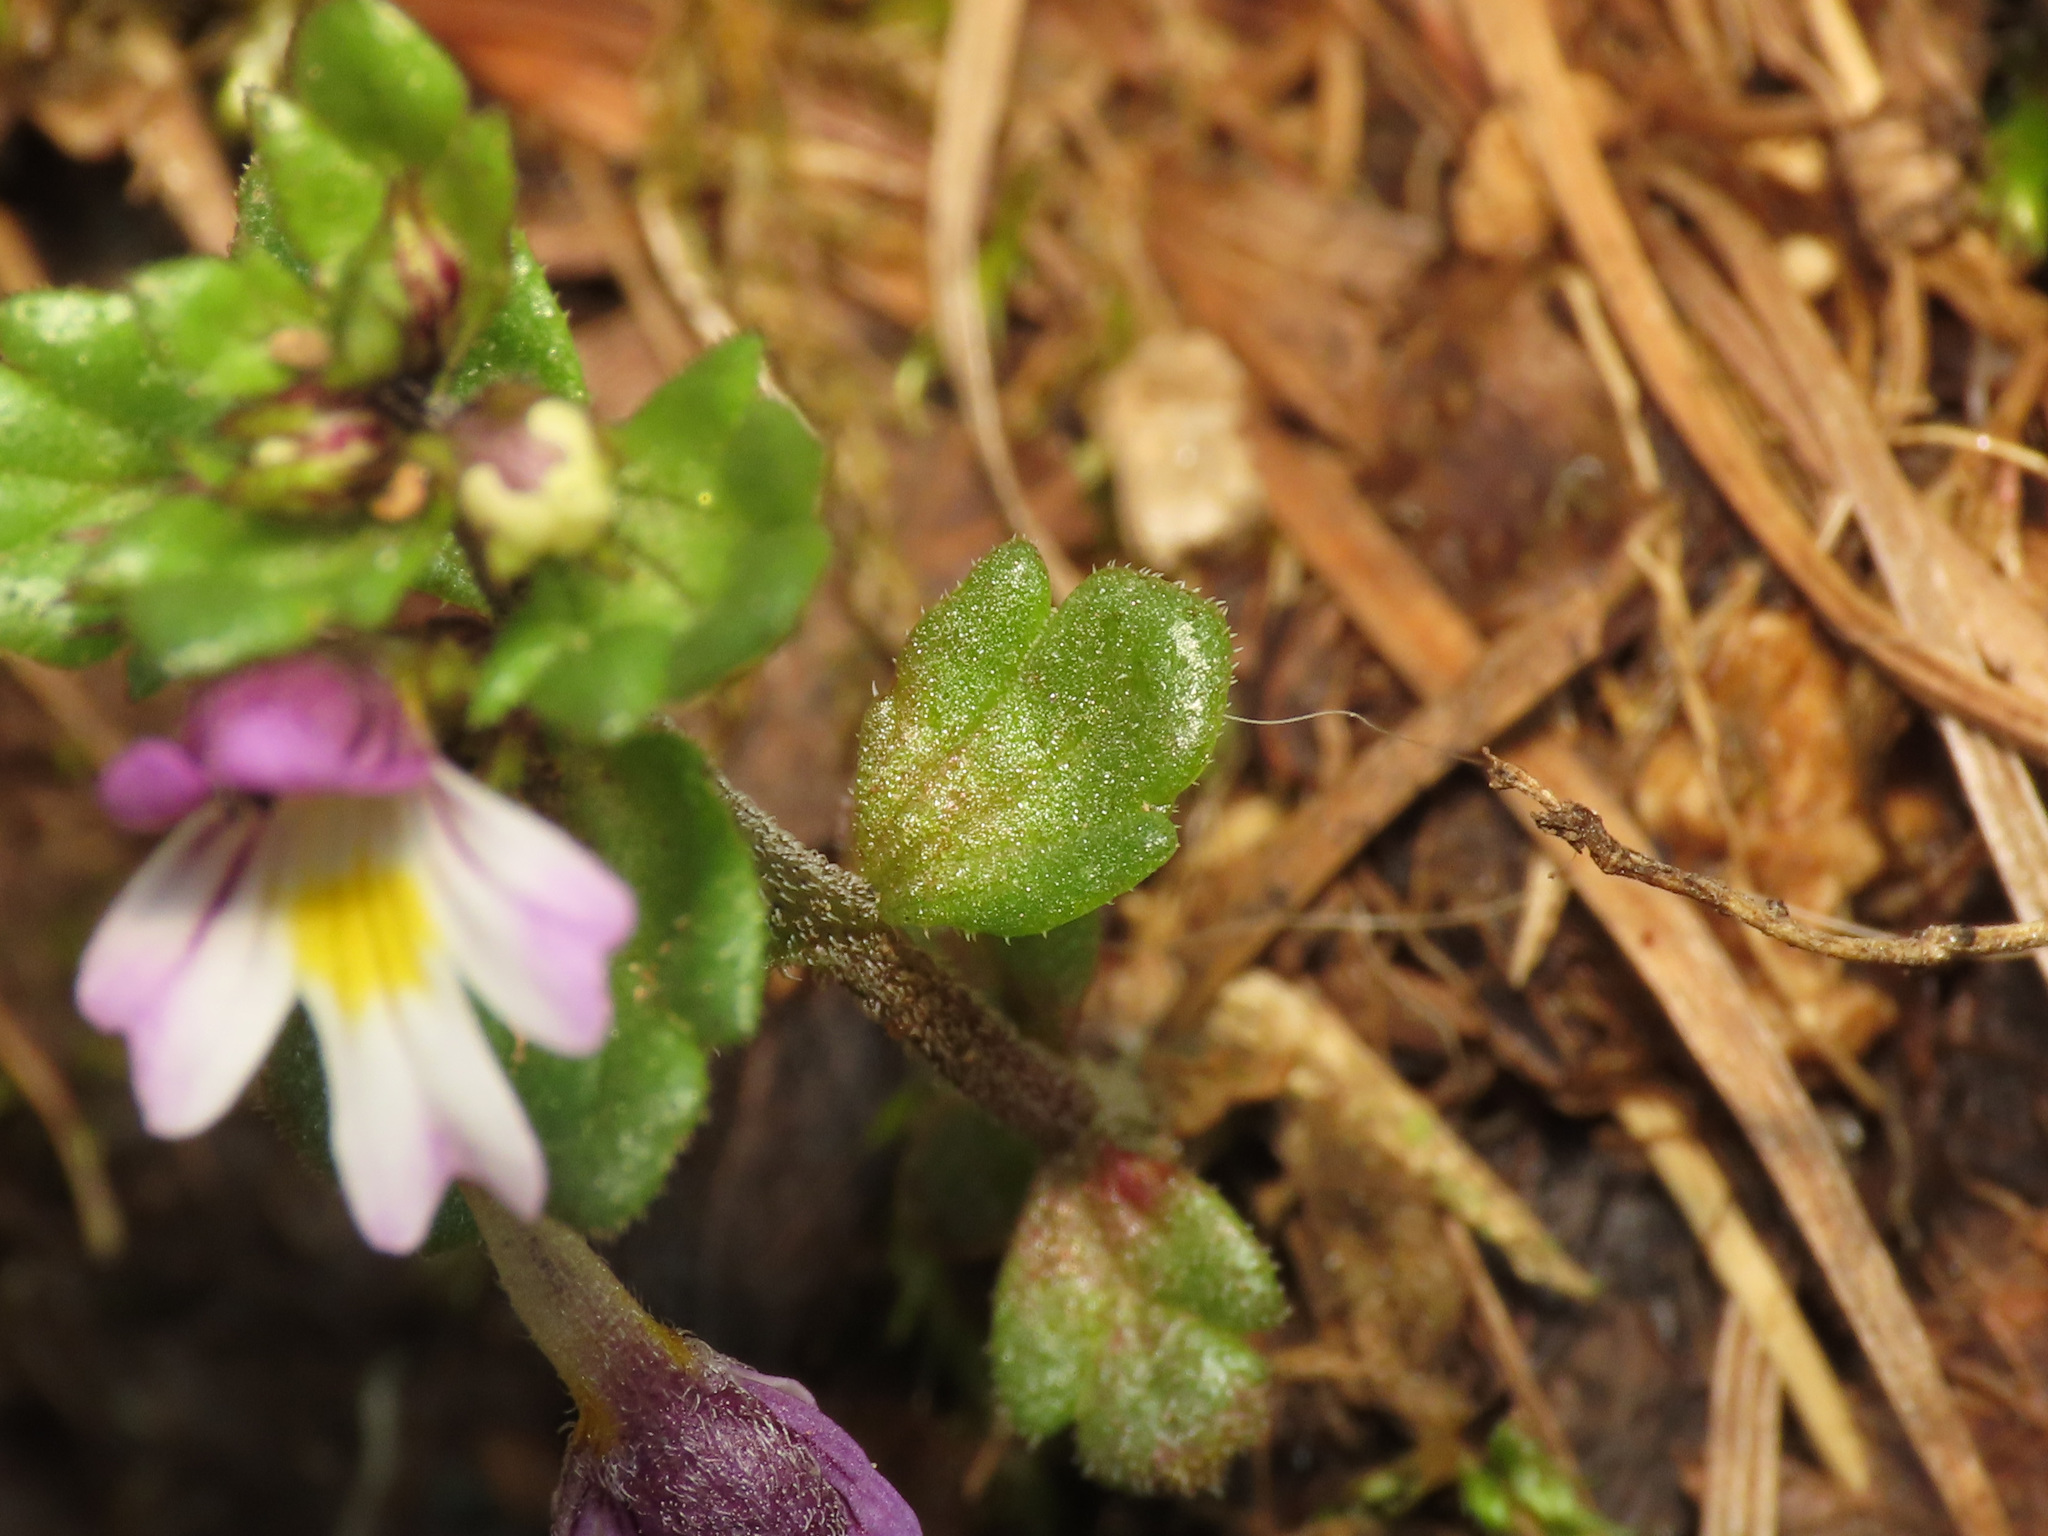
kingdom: Plantae
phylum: Tracheophyta
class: Magnoliopsida
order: Lamiales
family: Orobanchaceae
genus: Euphrasia
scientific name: Euphrasia minima
